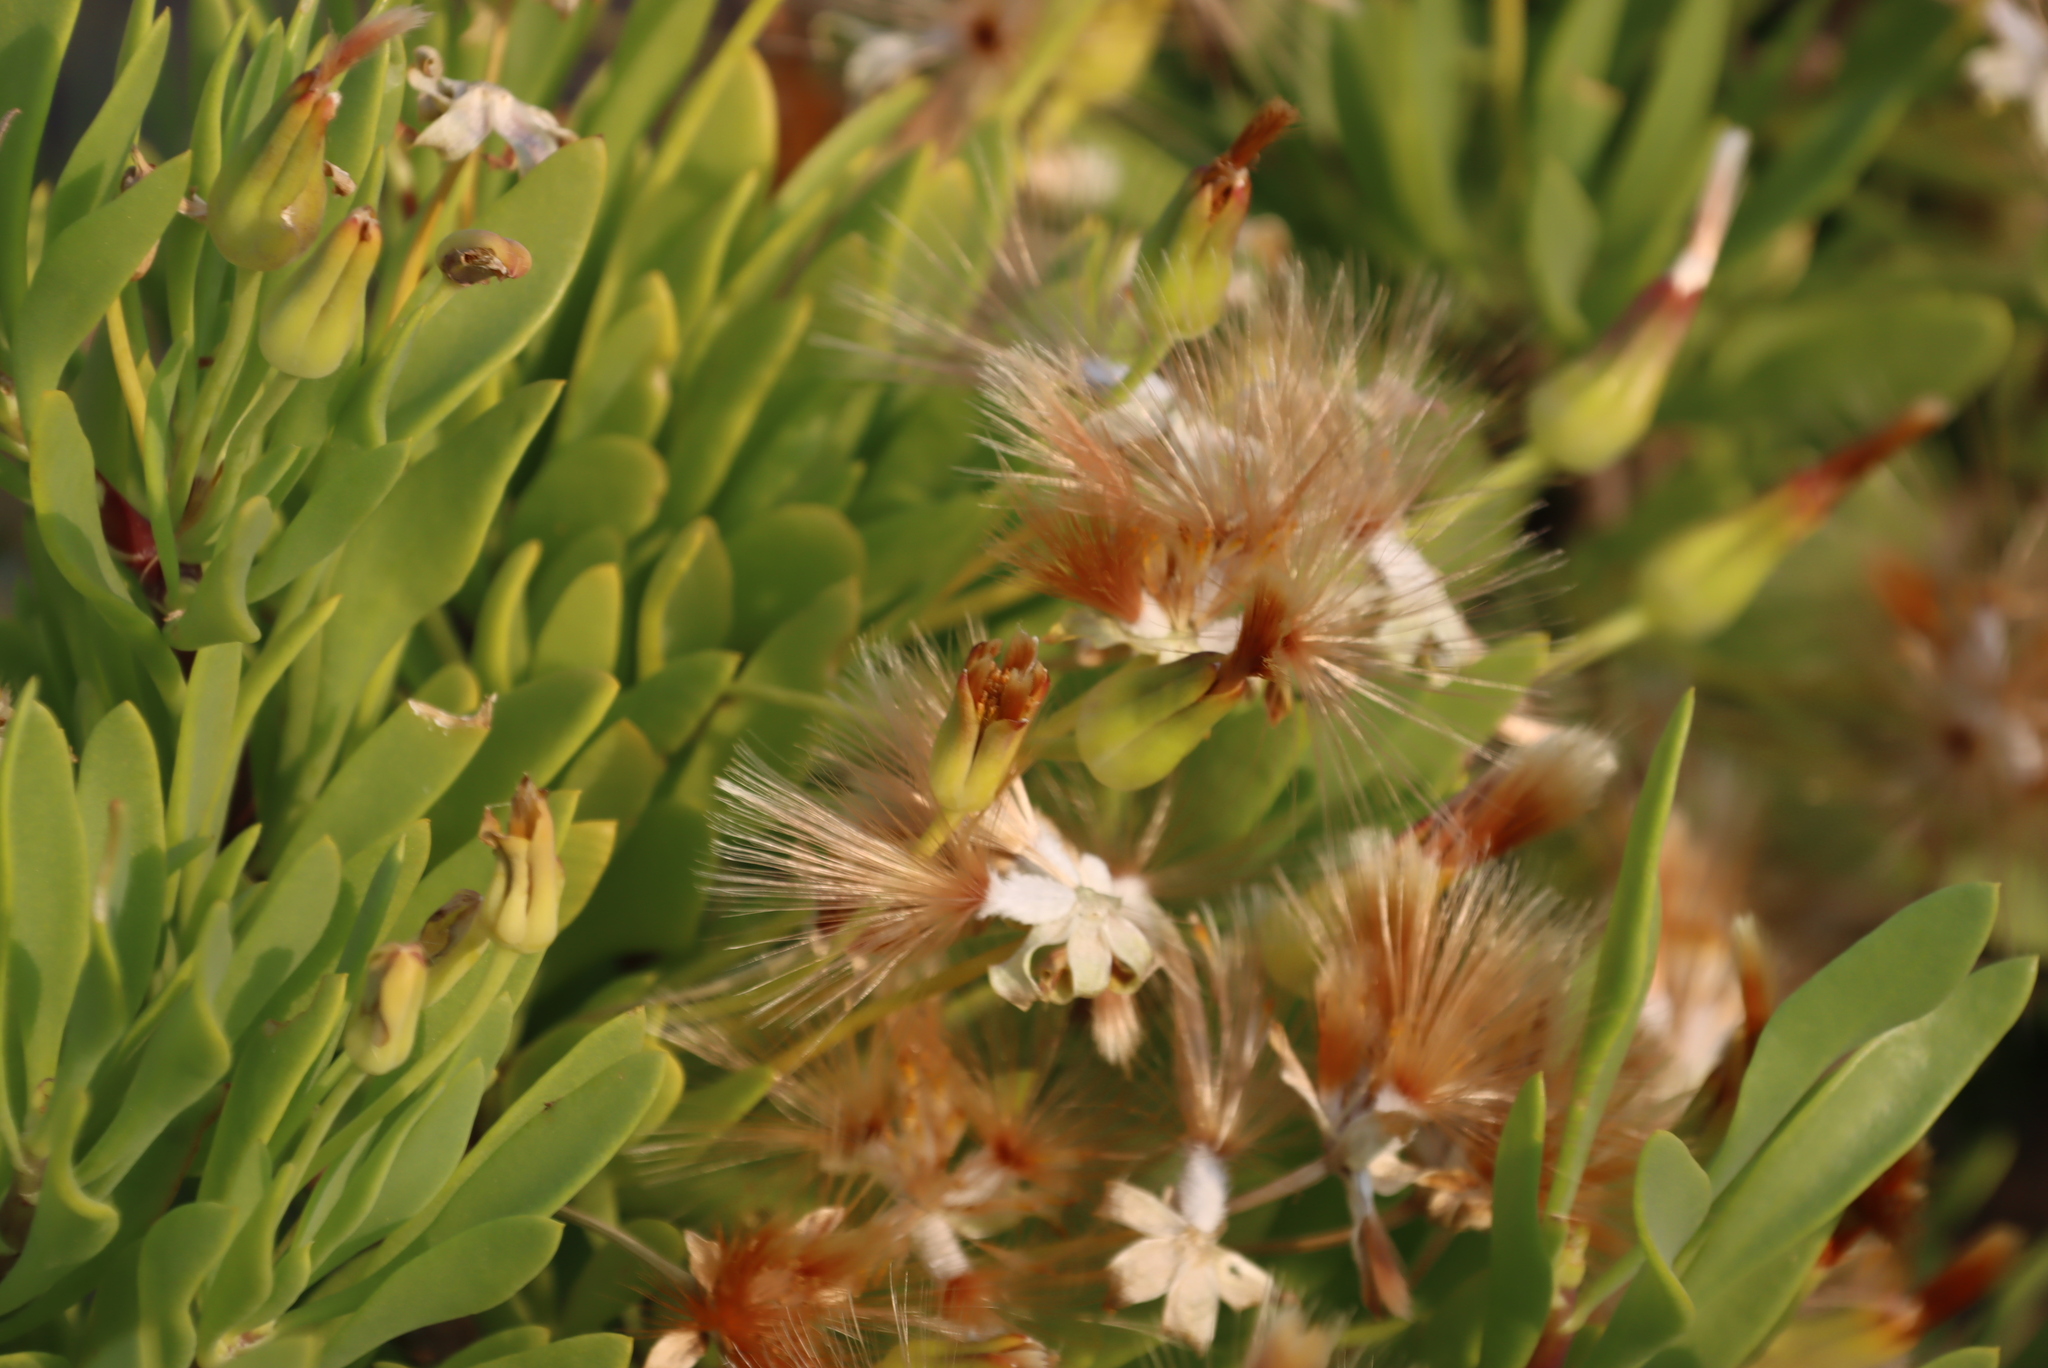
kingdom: Plantae
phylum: Tracheophyta
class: Magnoliopsida
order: Asterales
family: Asteraceae
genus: Othonna
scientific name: Othonna lasiocarpa
